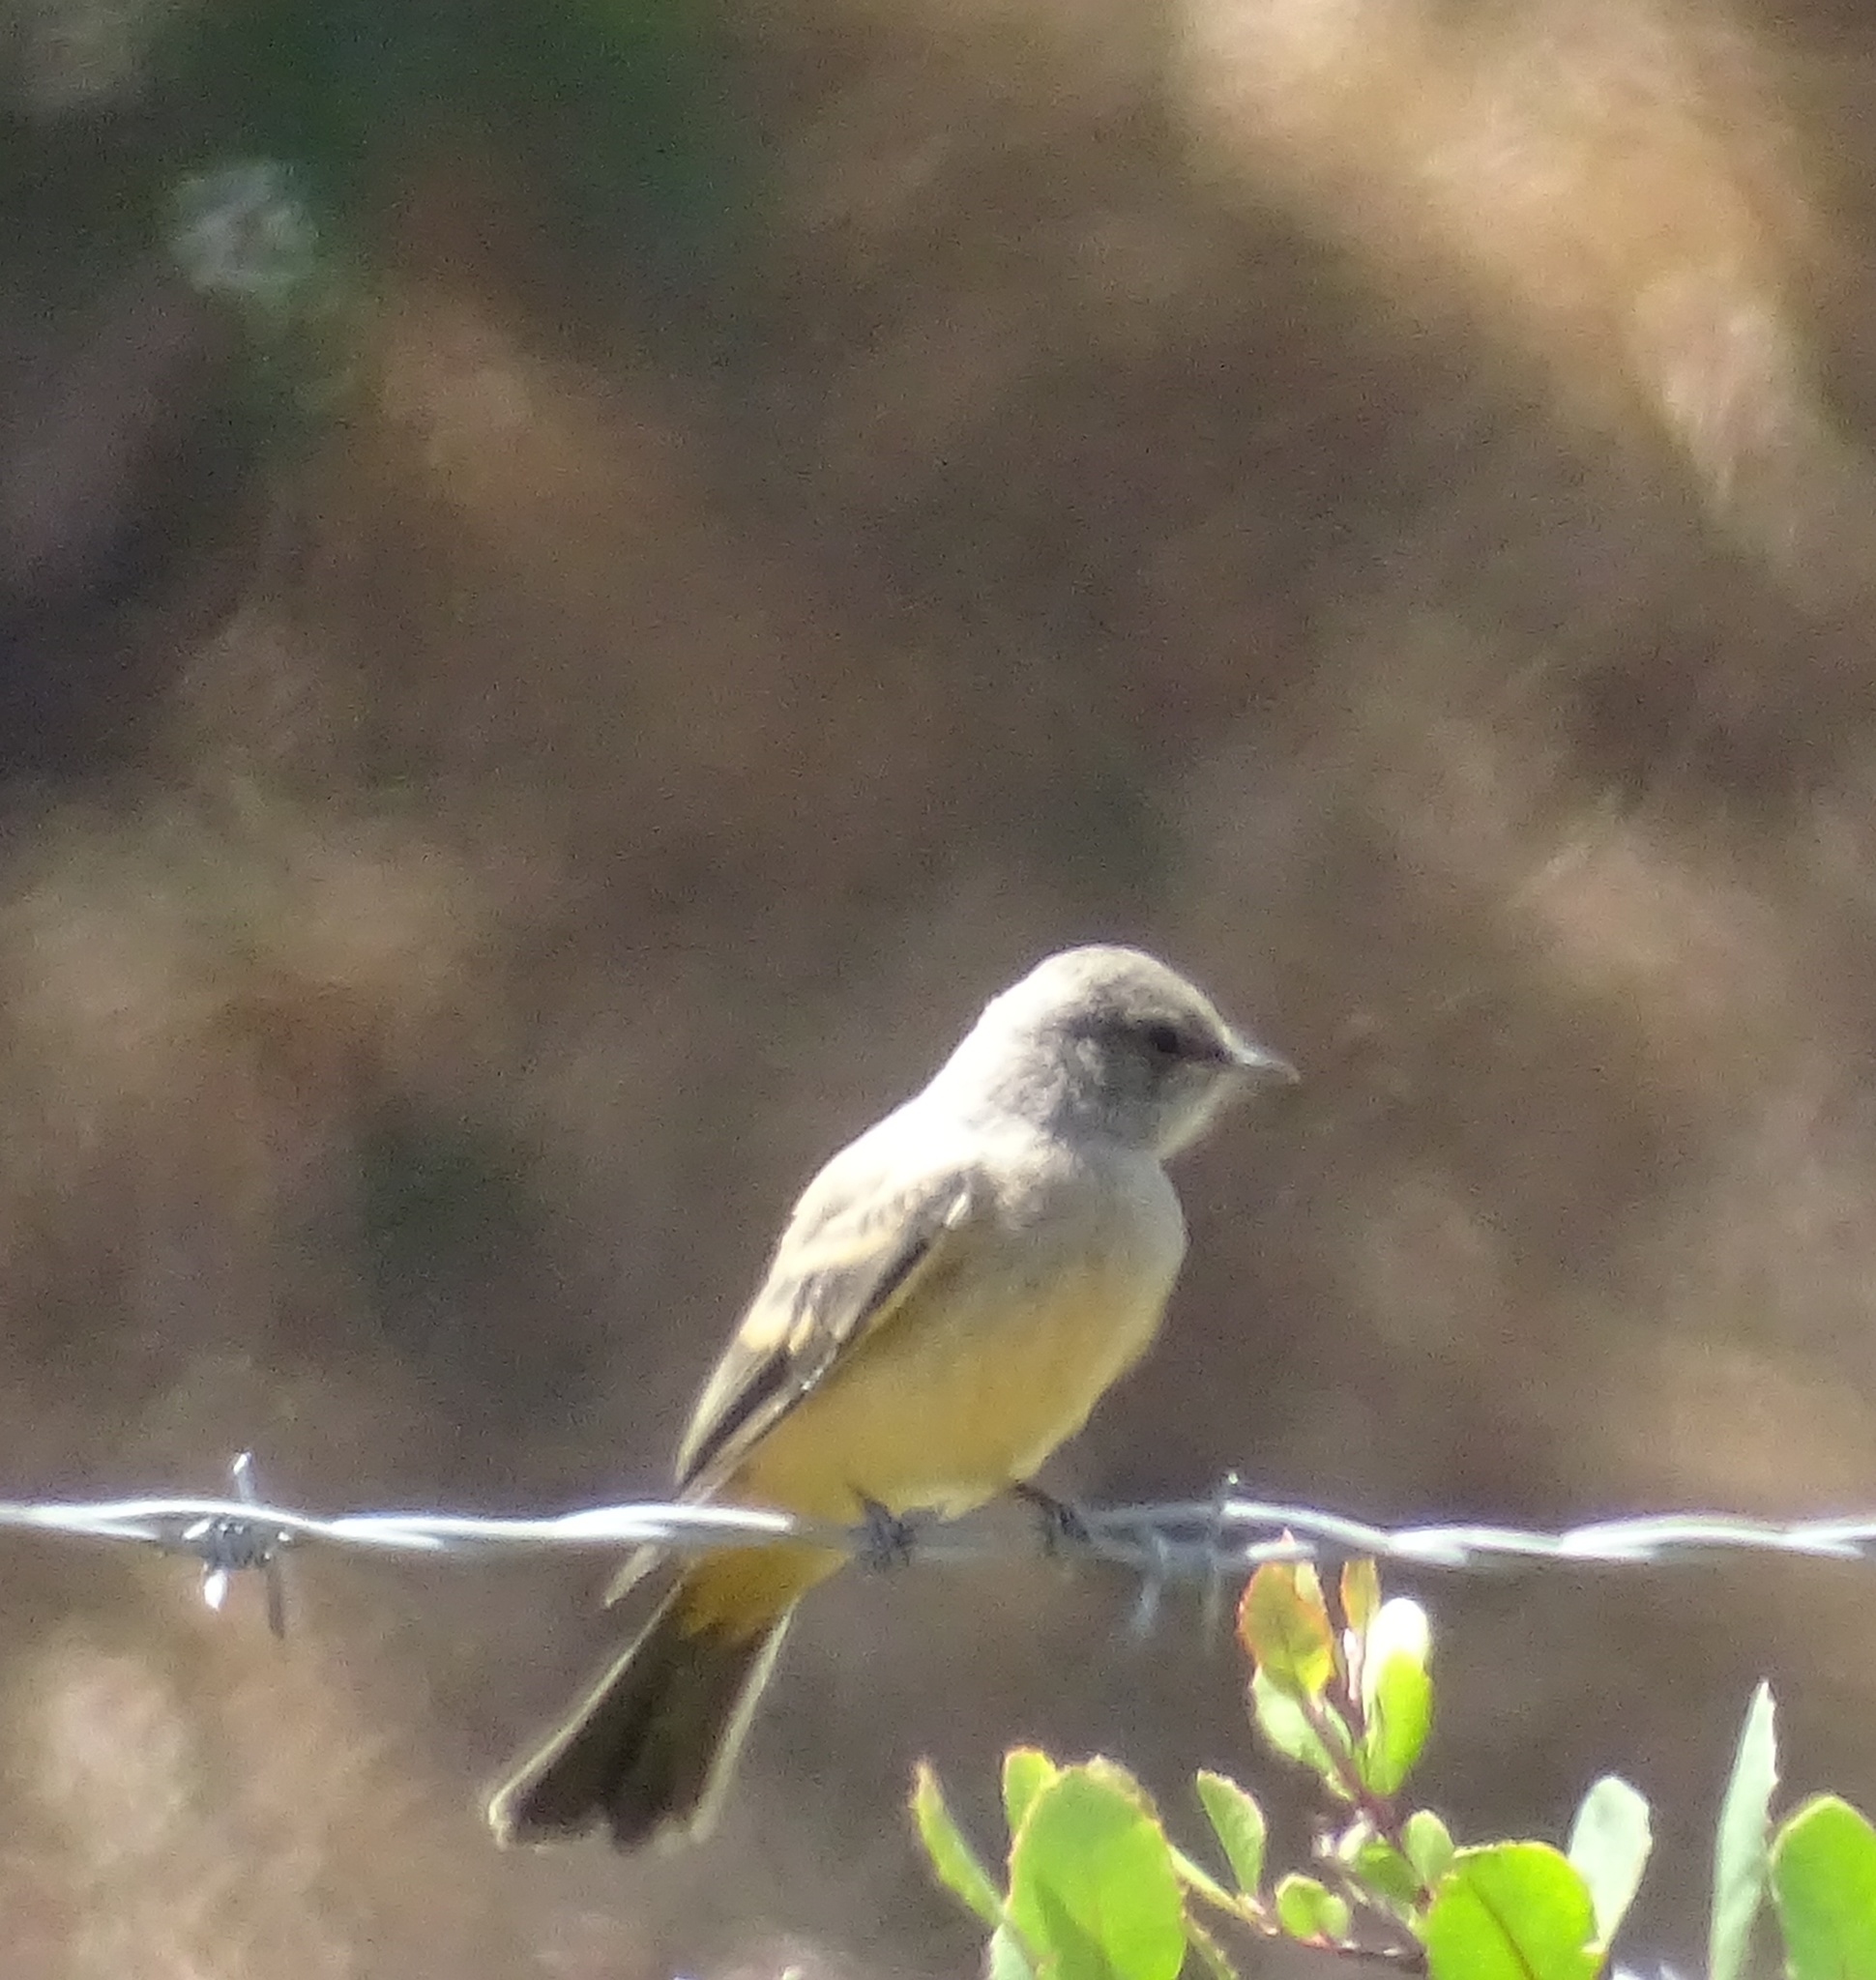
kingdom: Animalia
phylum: Chordata
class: Aves
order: Passeriformes
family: Tyrannidae
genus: Sayornis
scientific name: Sayornis saya
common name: Say's phoebe
